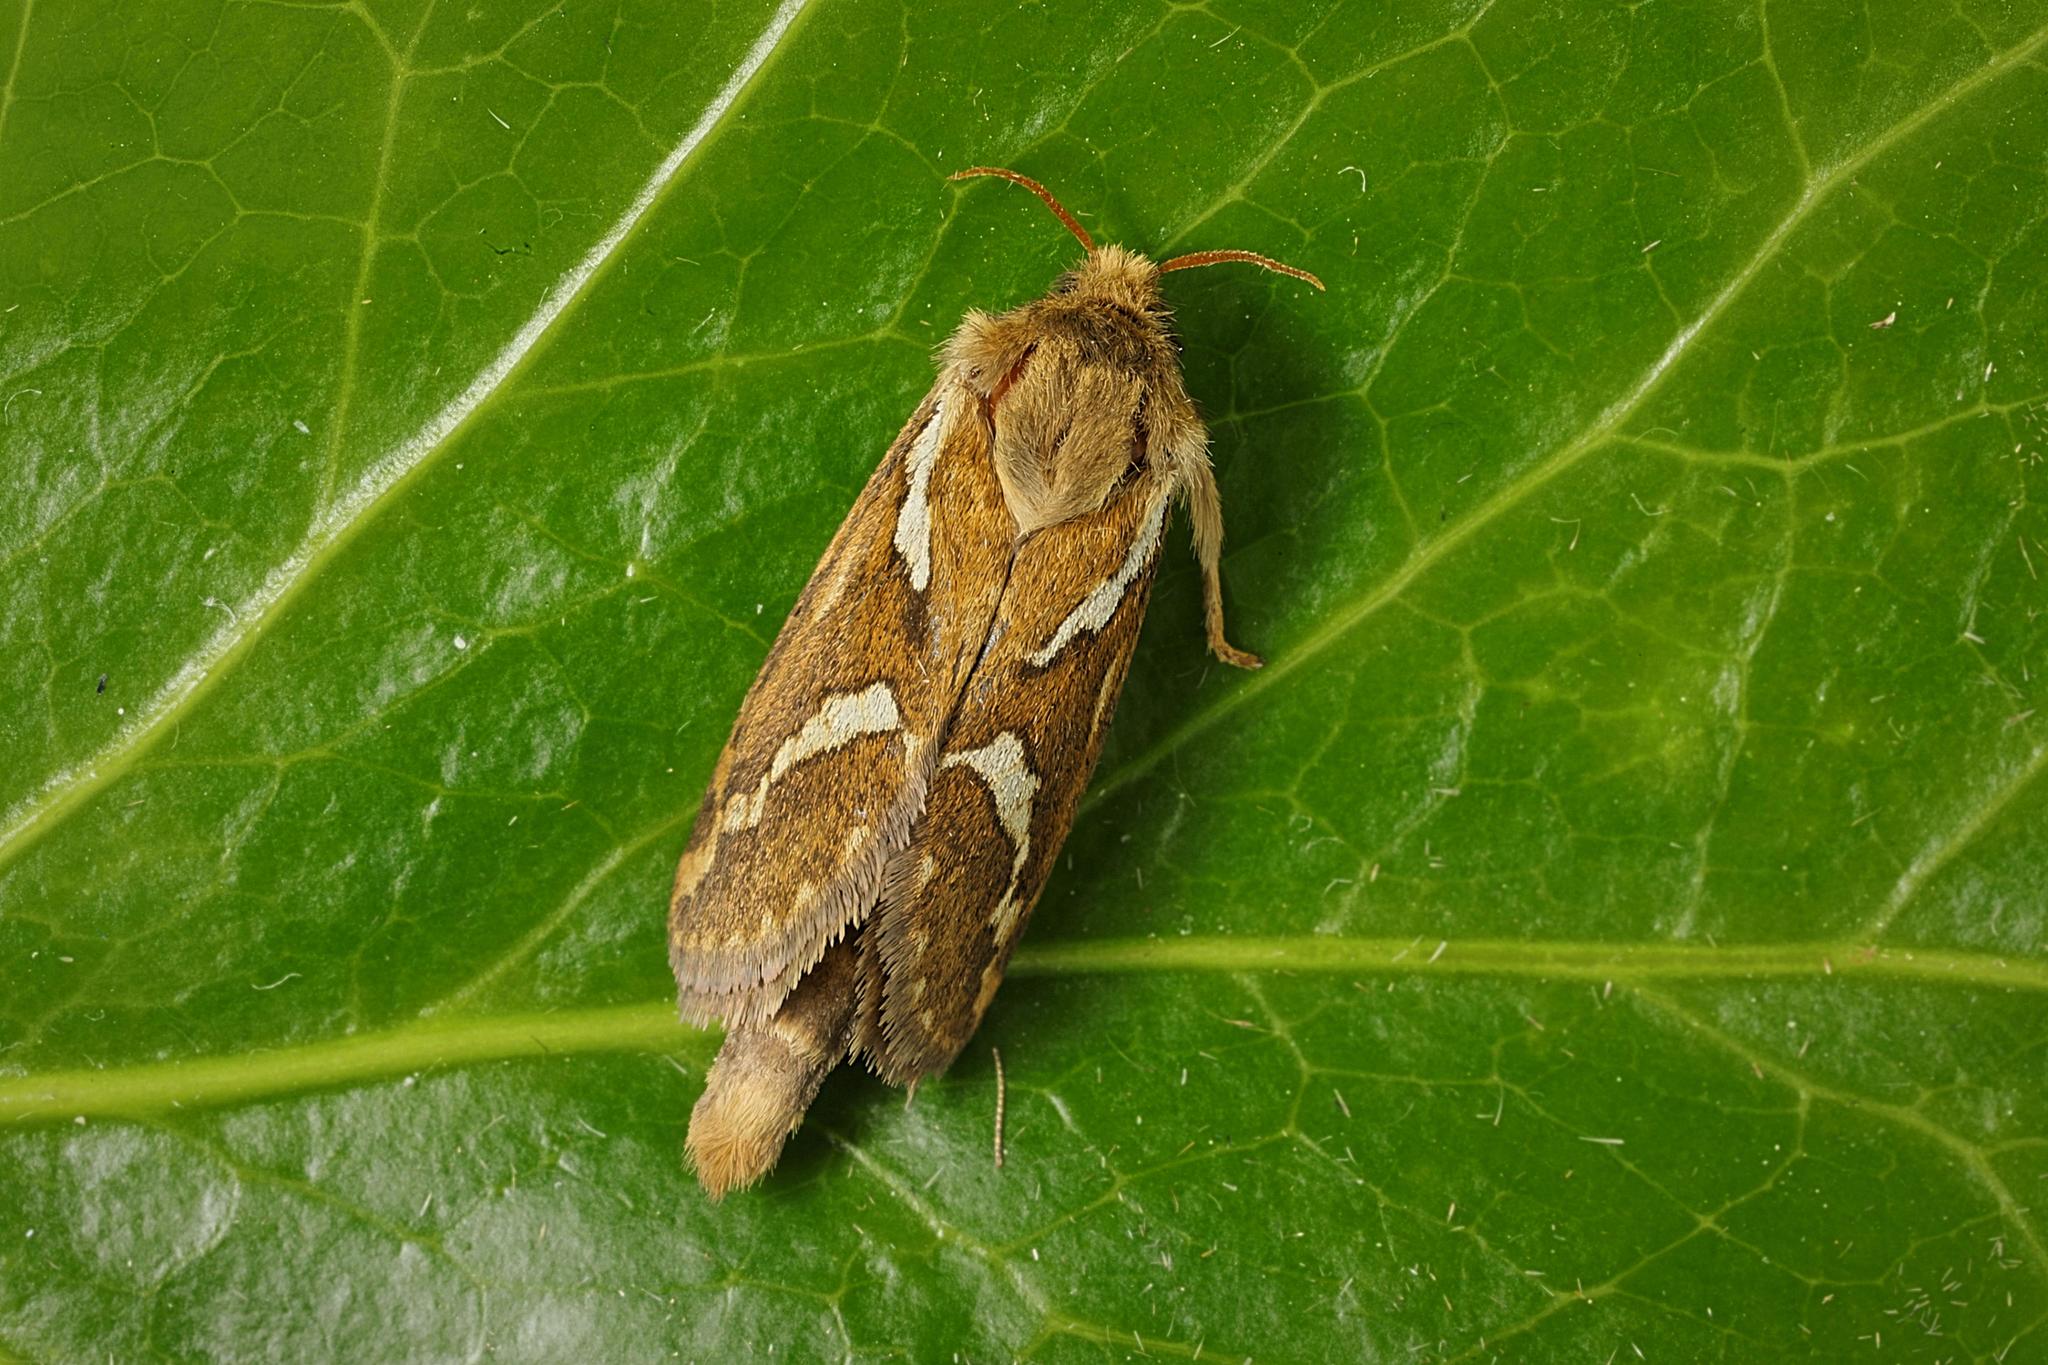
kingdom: Animalia
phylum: Arthropoda
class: Insecta
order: Lepidoptera
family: Hepialidae
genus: Korscheltellus
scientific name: Korscheltellus lupulina
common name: Common swift
